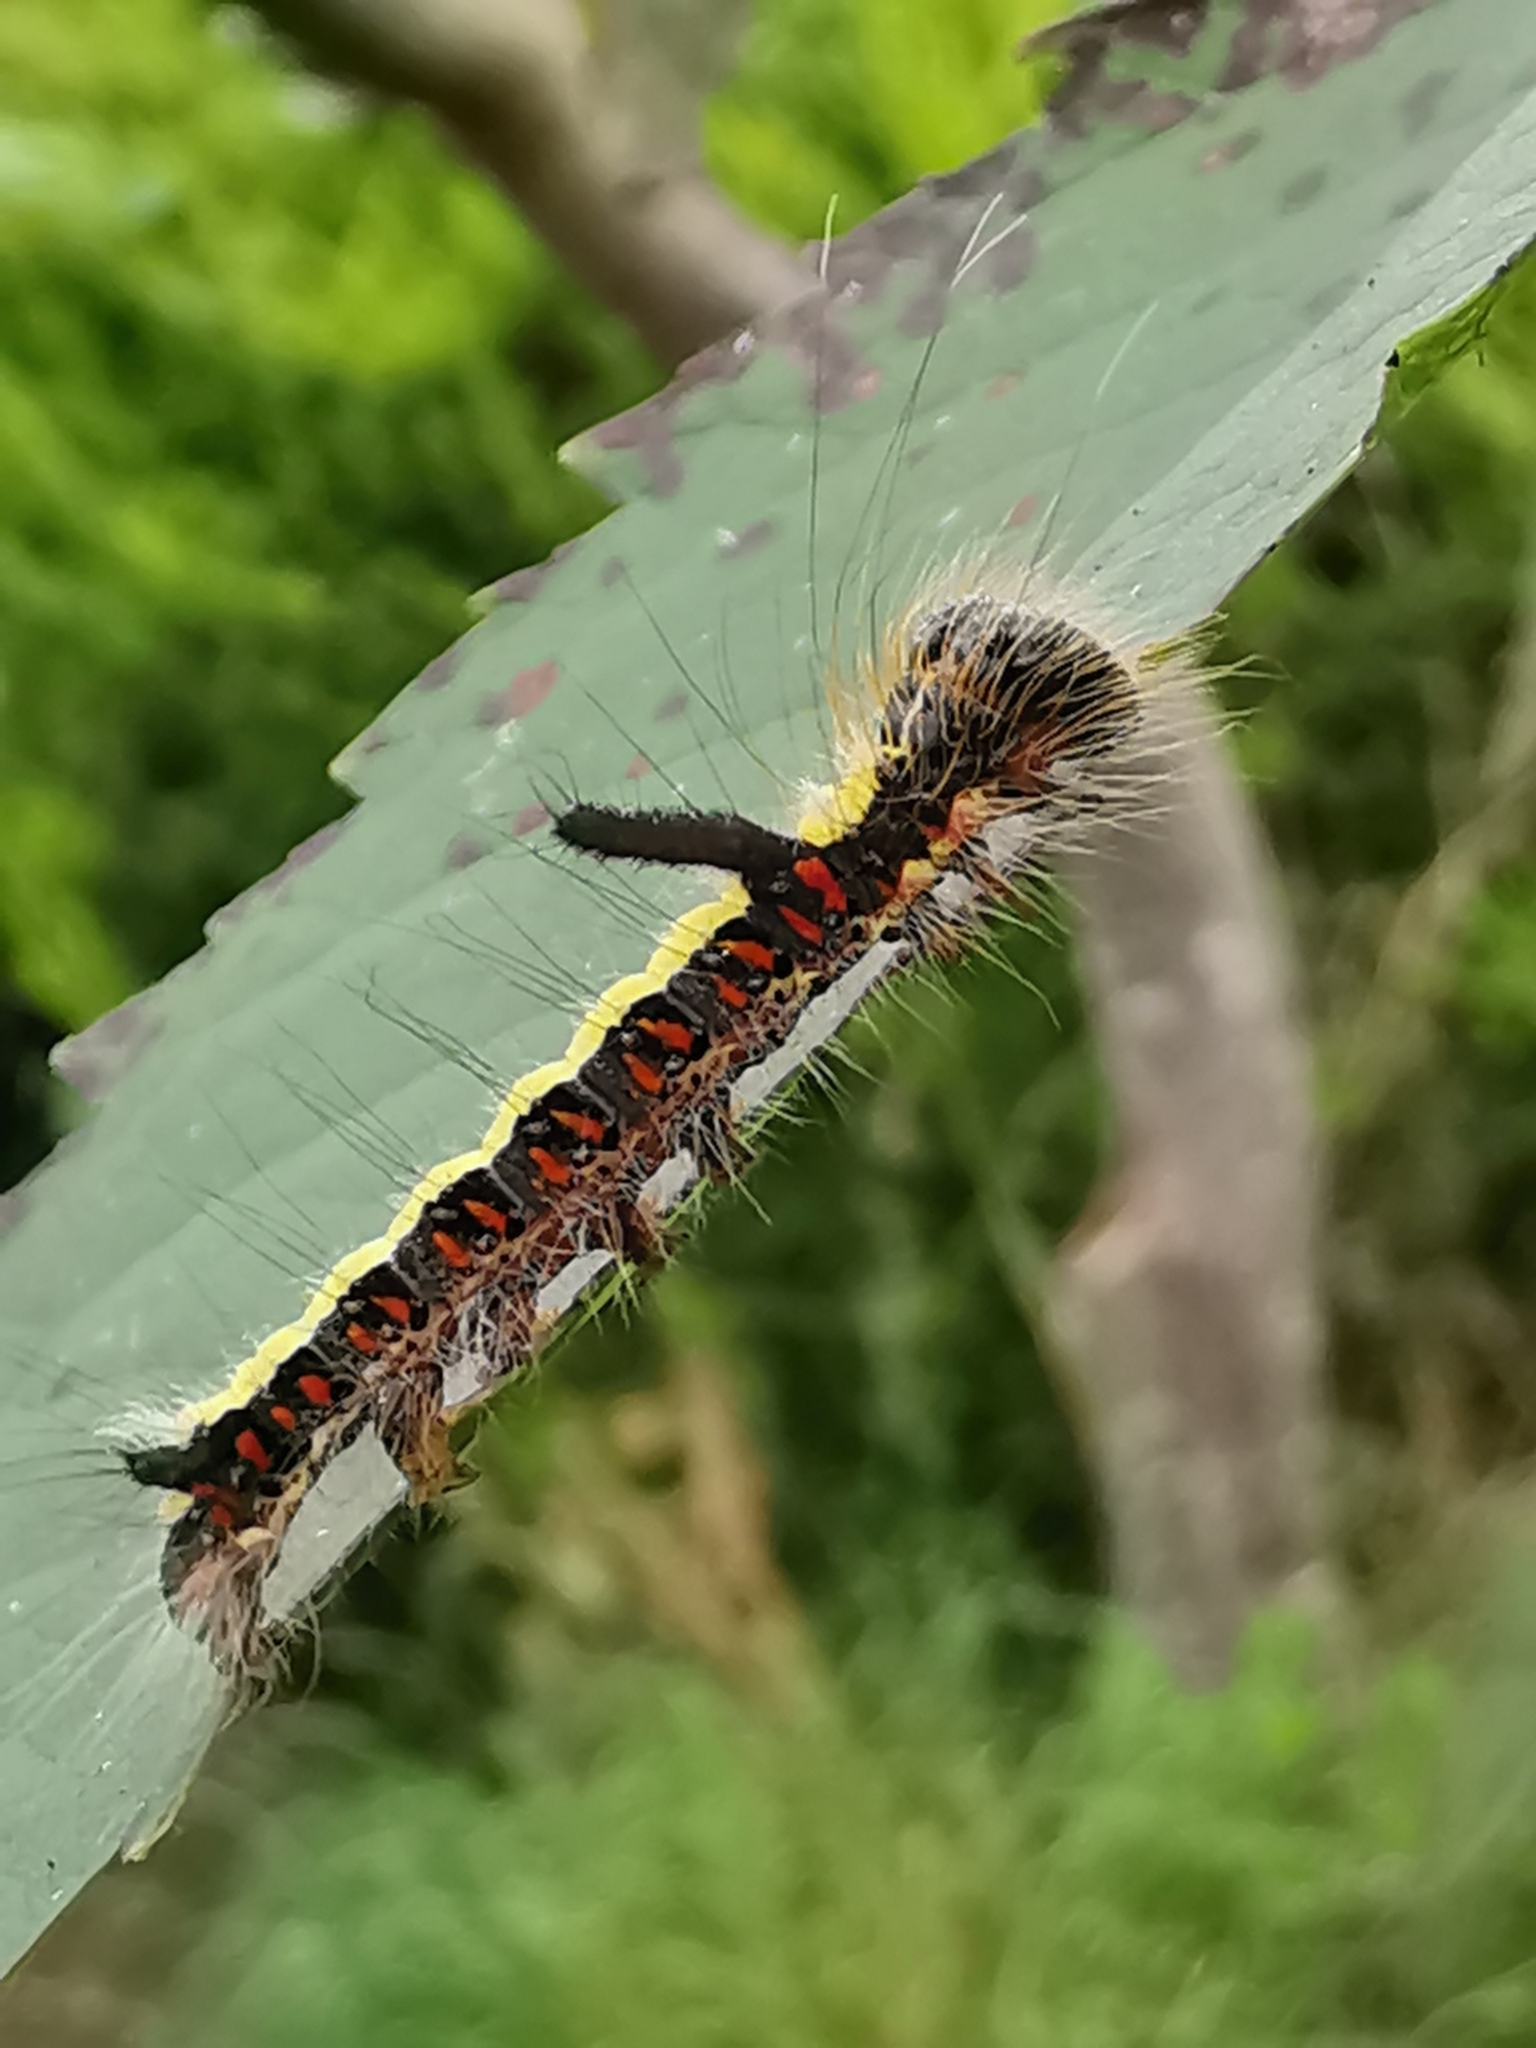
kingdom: Animalia
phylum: Arthropoda
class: Insecta
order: Lepidoptera
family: Noctuidae
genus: Acronicta
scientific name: Acronicta psi
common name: Grey dagger
